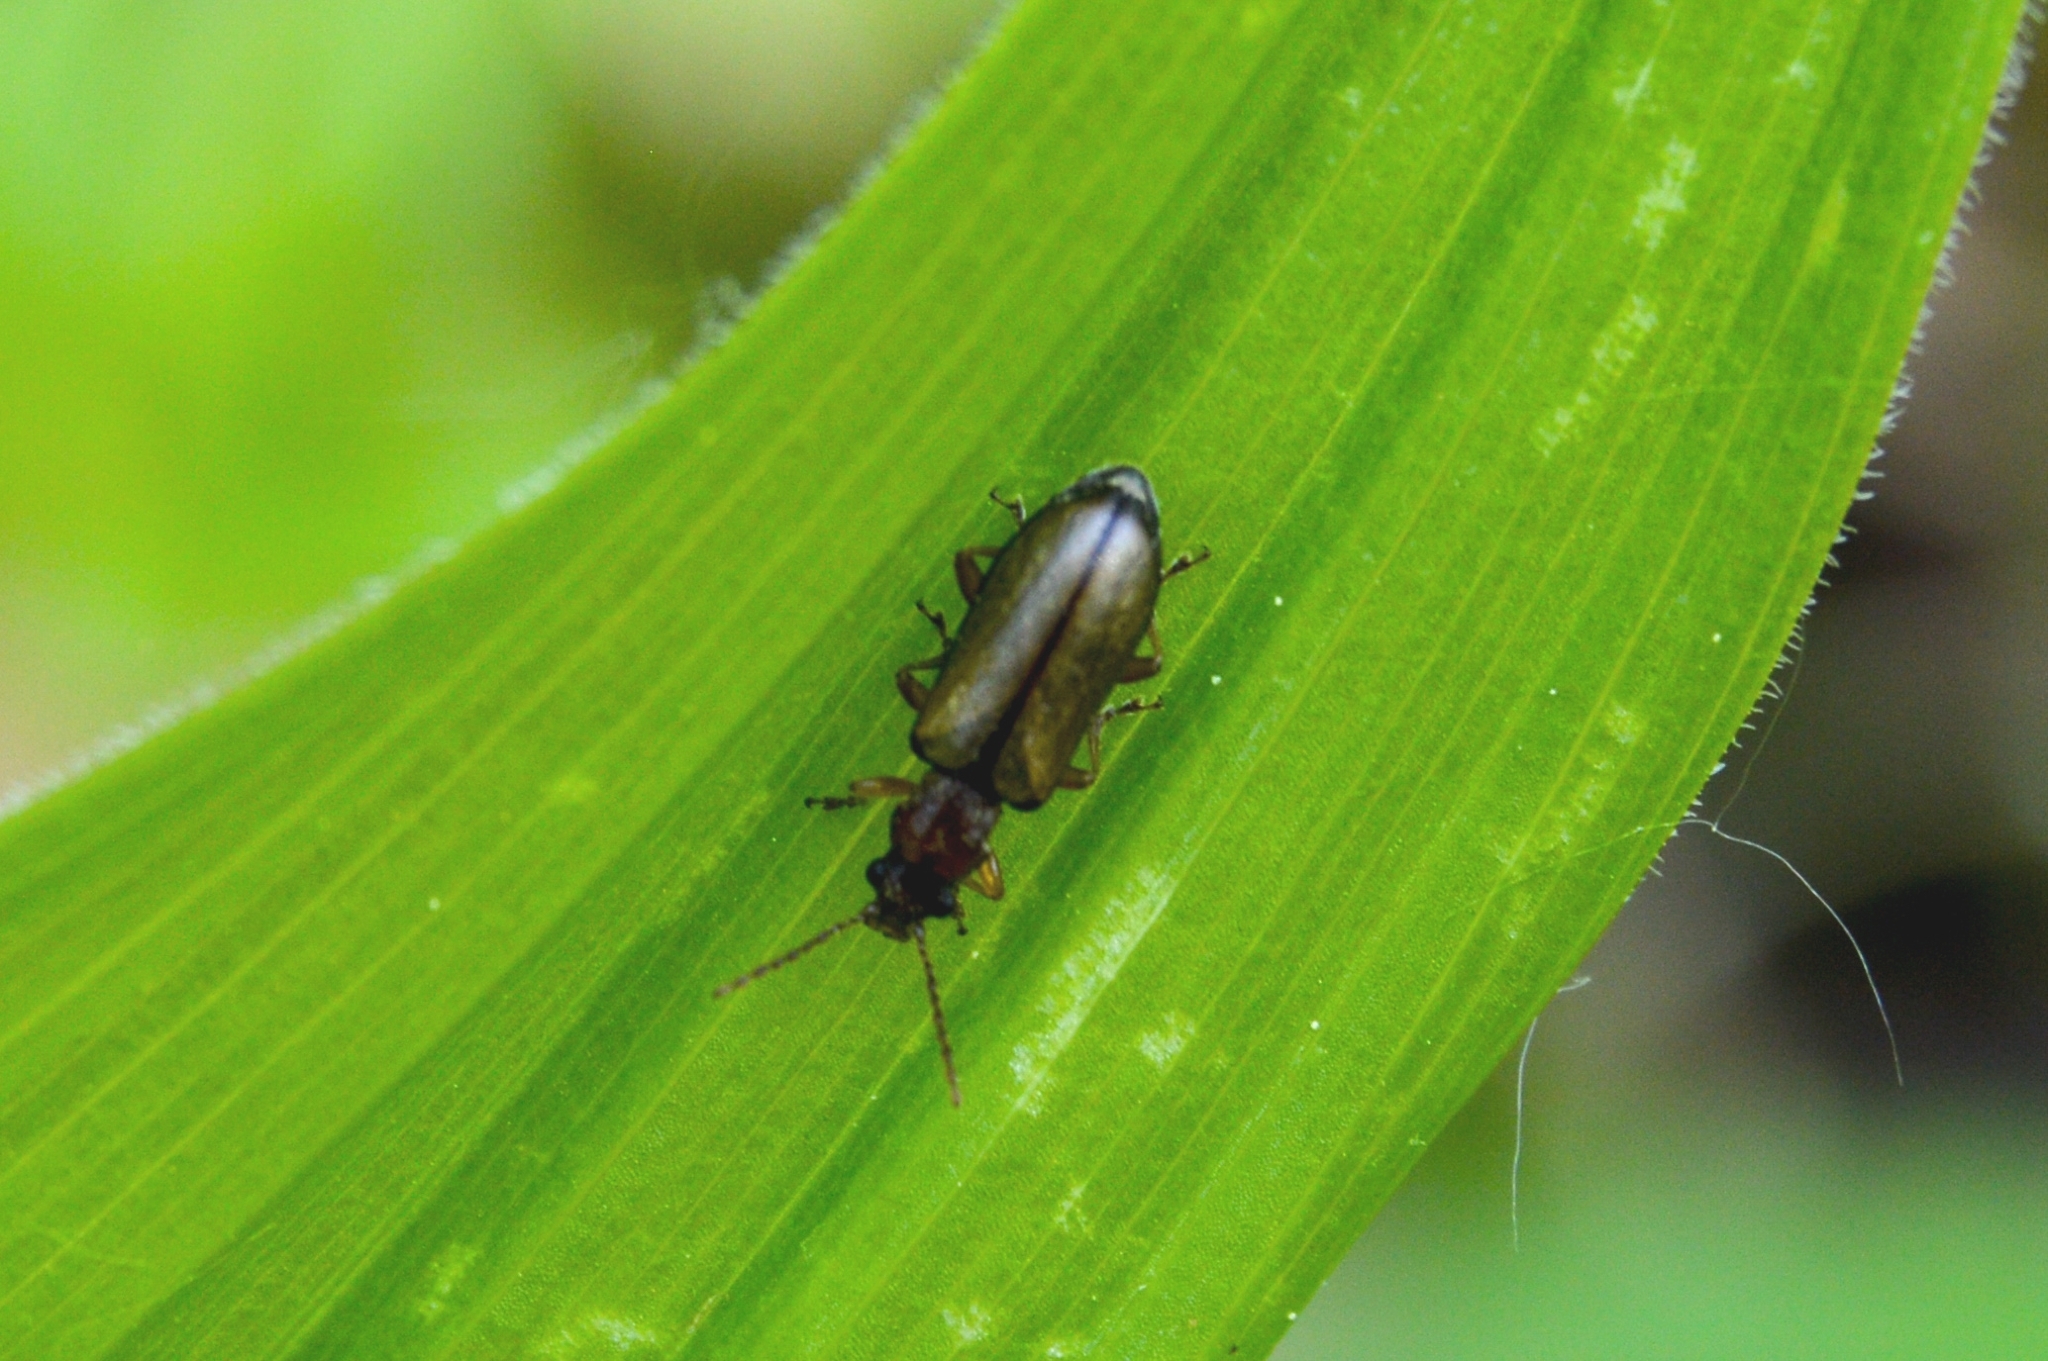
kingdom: Animalia
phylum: Arthropoda
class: Insecta
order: Coleoptera
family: Orsodacnidae
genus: Orsodacne
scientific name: Orsodacne cerasi
